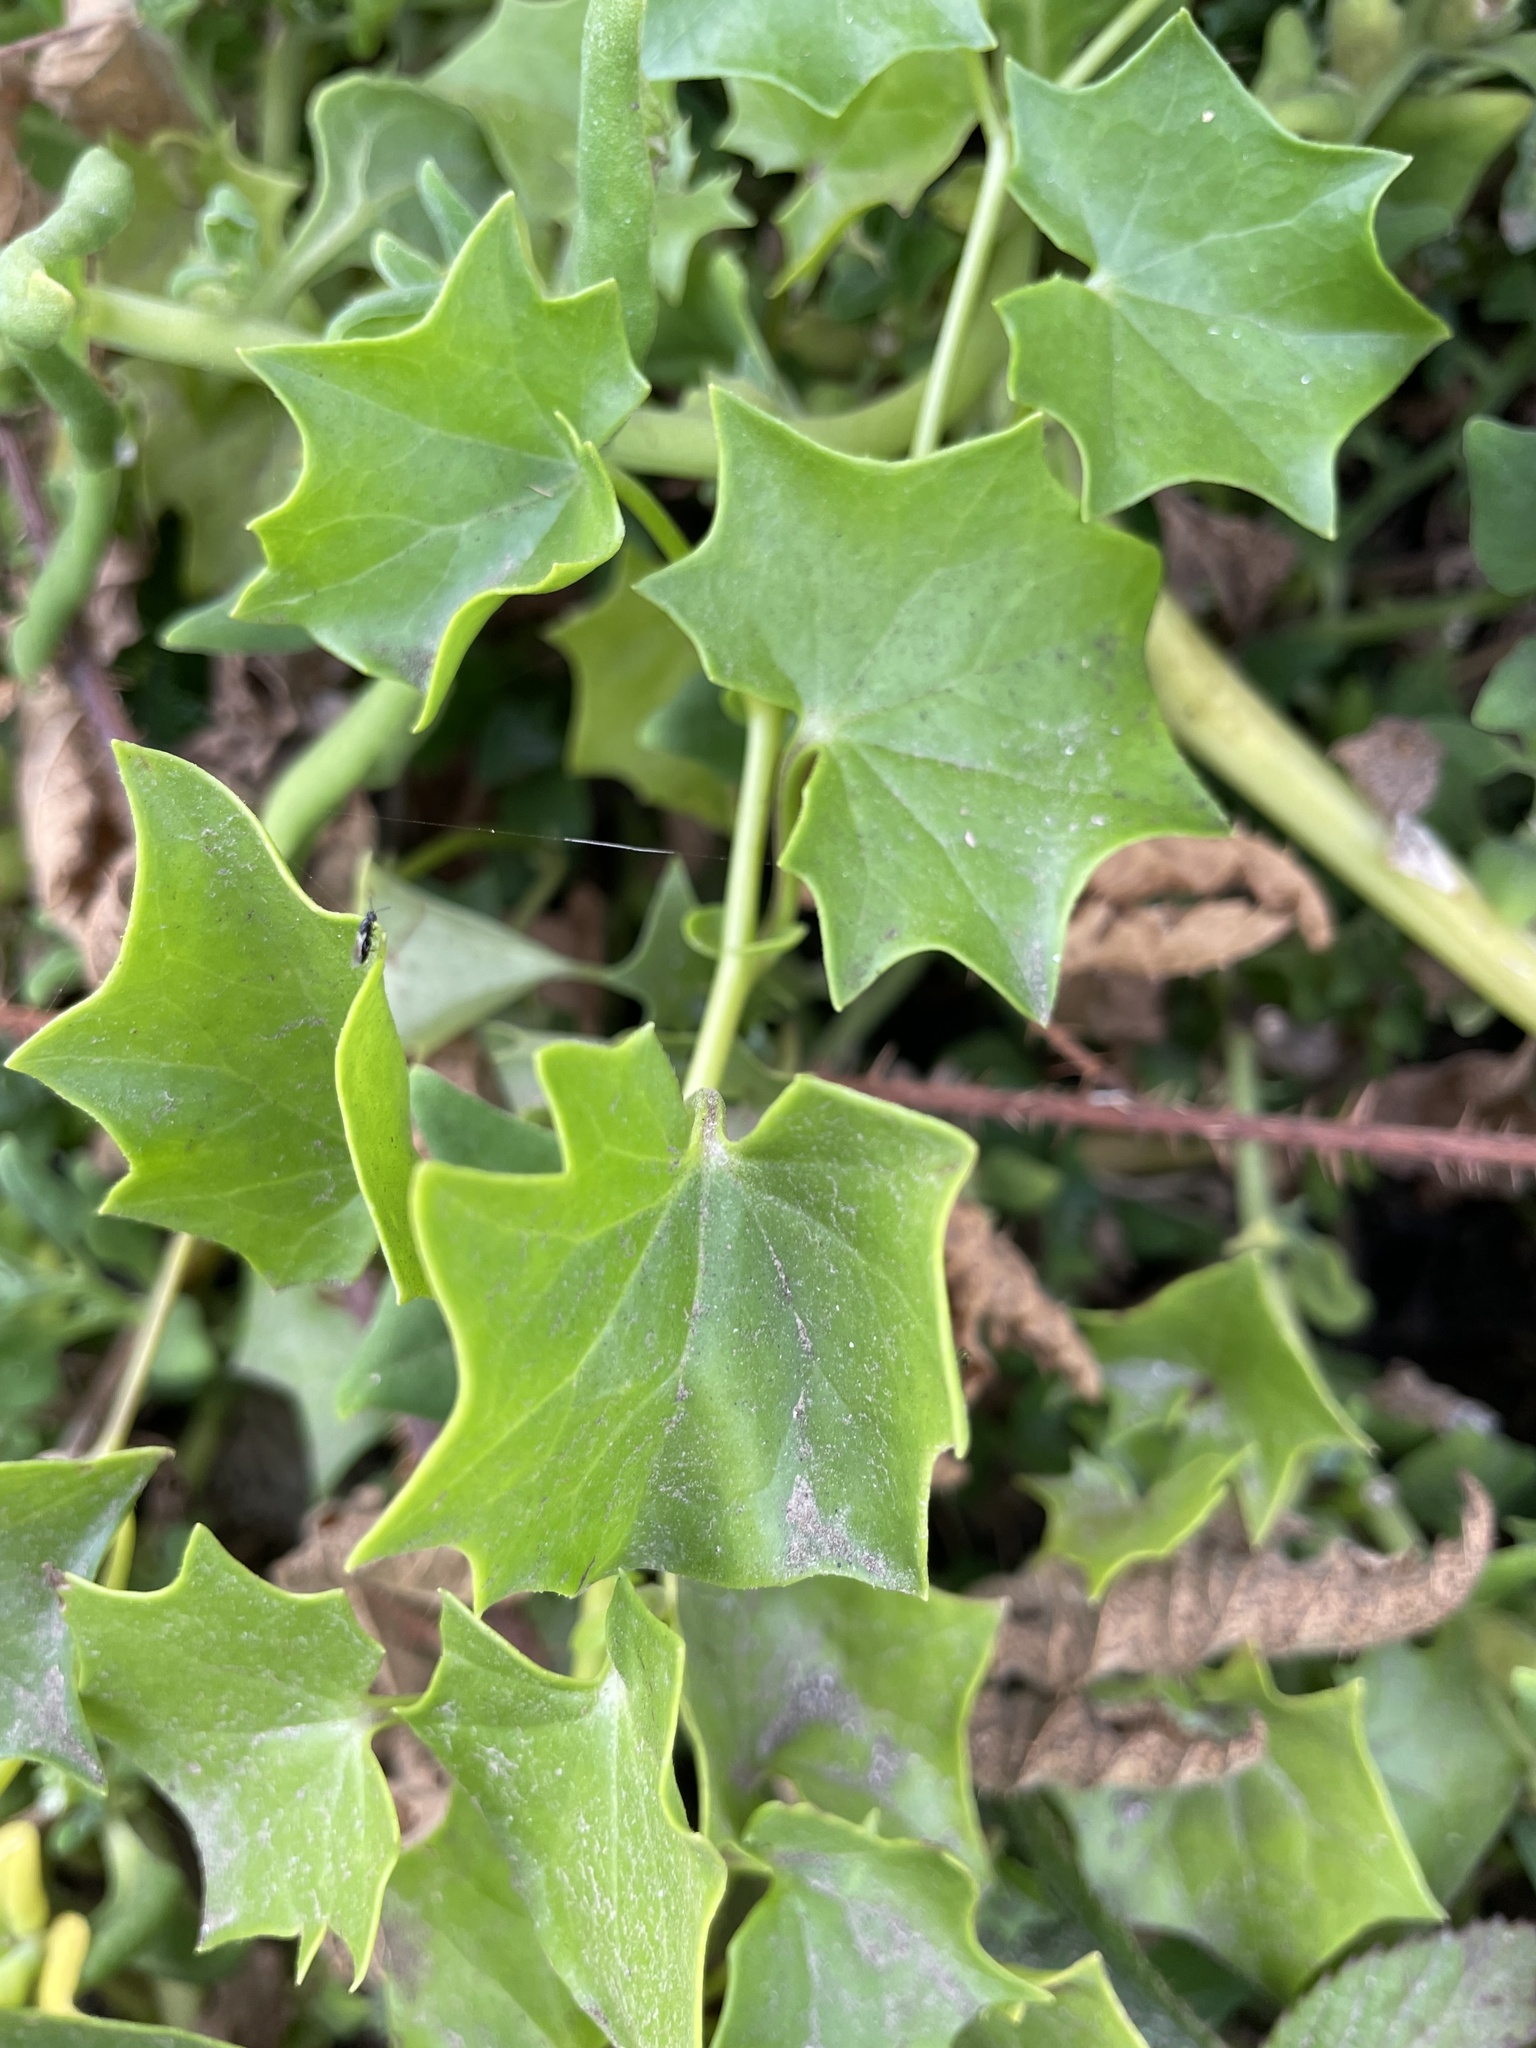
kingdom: Plantae
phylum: Tracheophyta
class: Magnoliopsida
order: Asterales
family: Asteraceae
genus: Delairea
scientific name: Delairea odorata
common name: Cape-ivy
